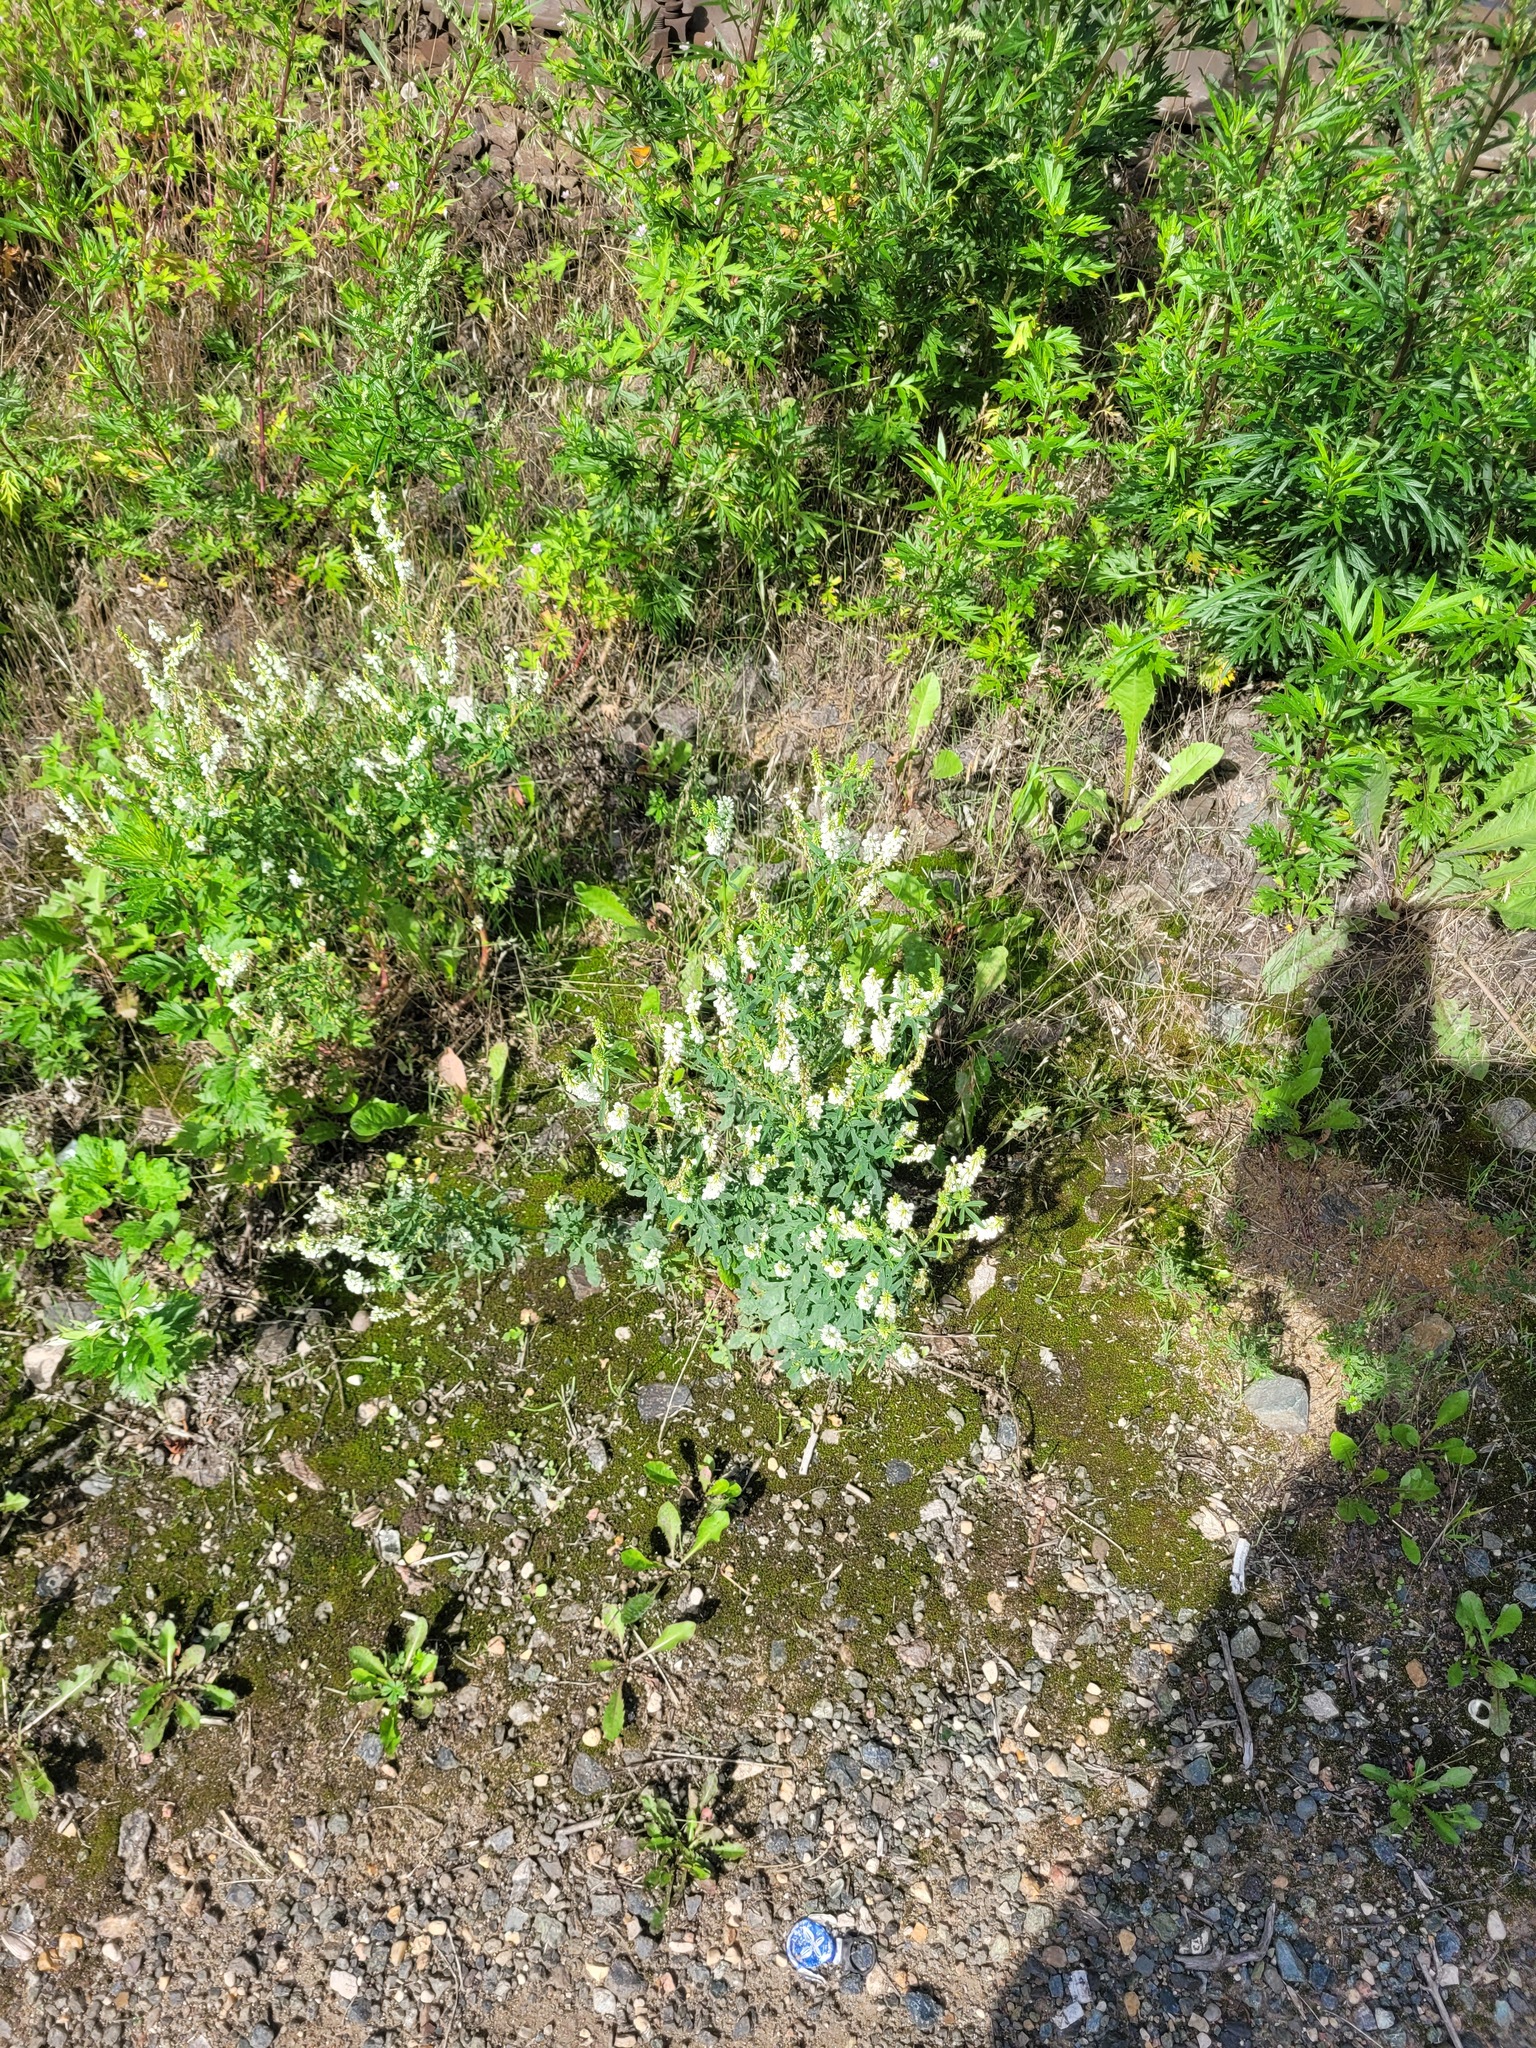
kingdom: Plantae
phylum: Tracheophyta
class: Magnoliopsida
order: Fabales
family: Fabaceae
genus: Melilotus
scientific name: Melilotus albus
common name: White melilot
